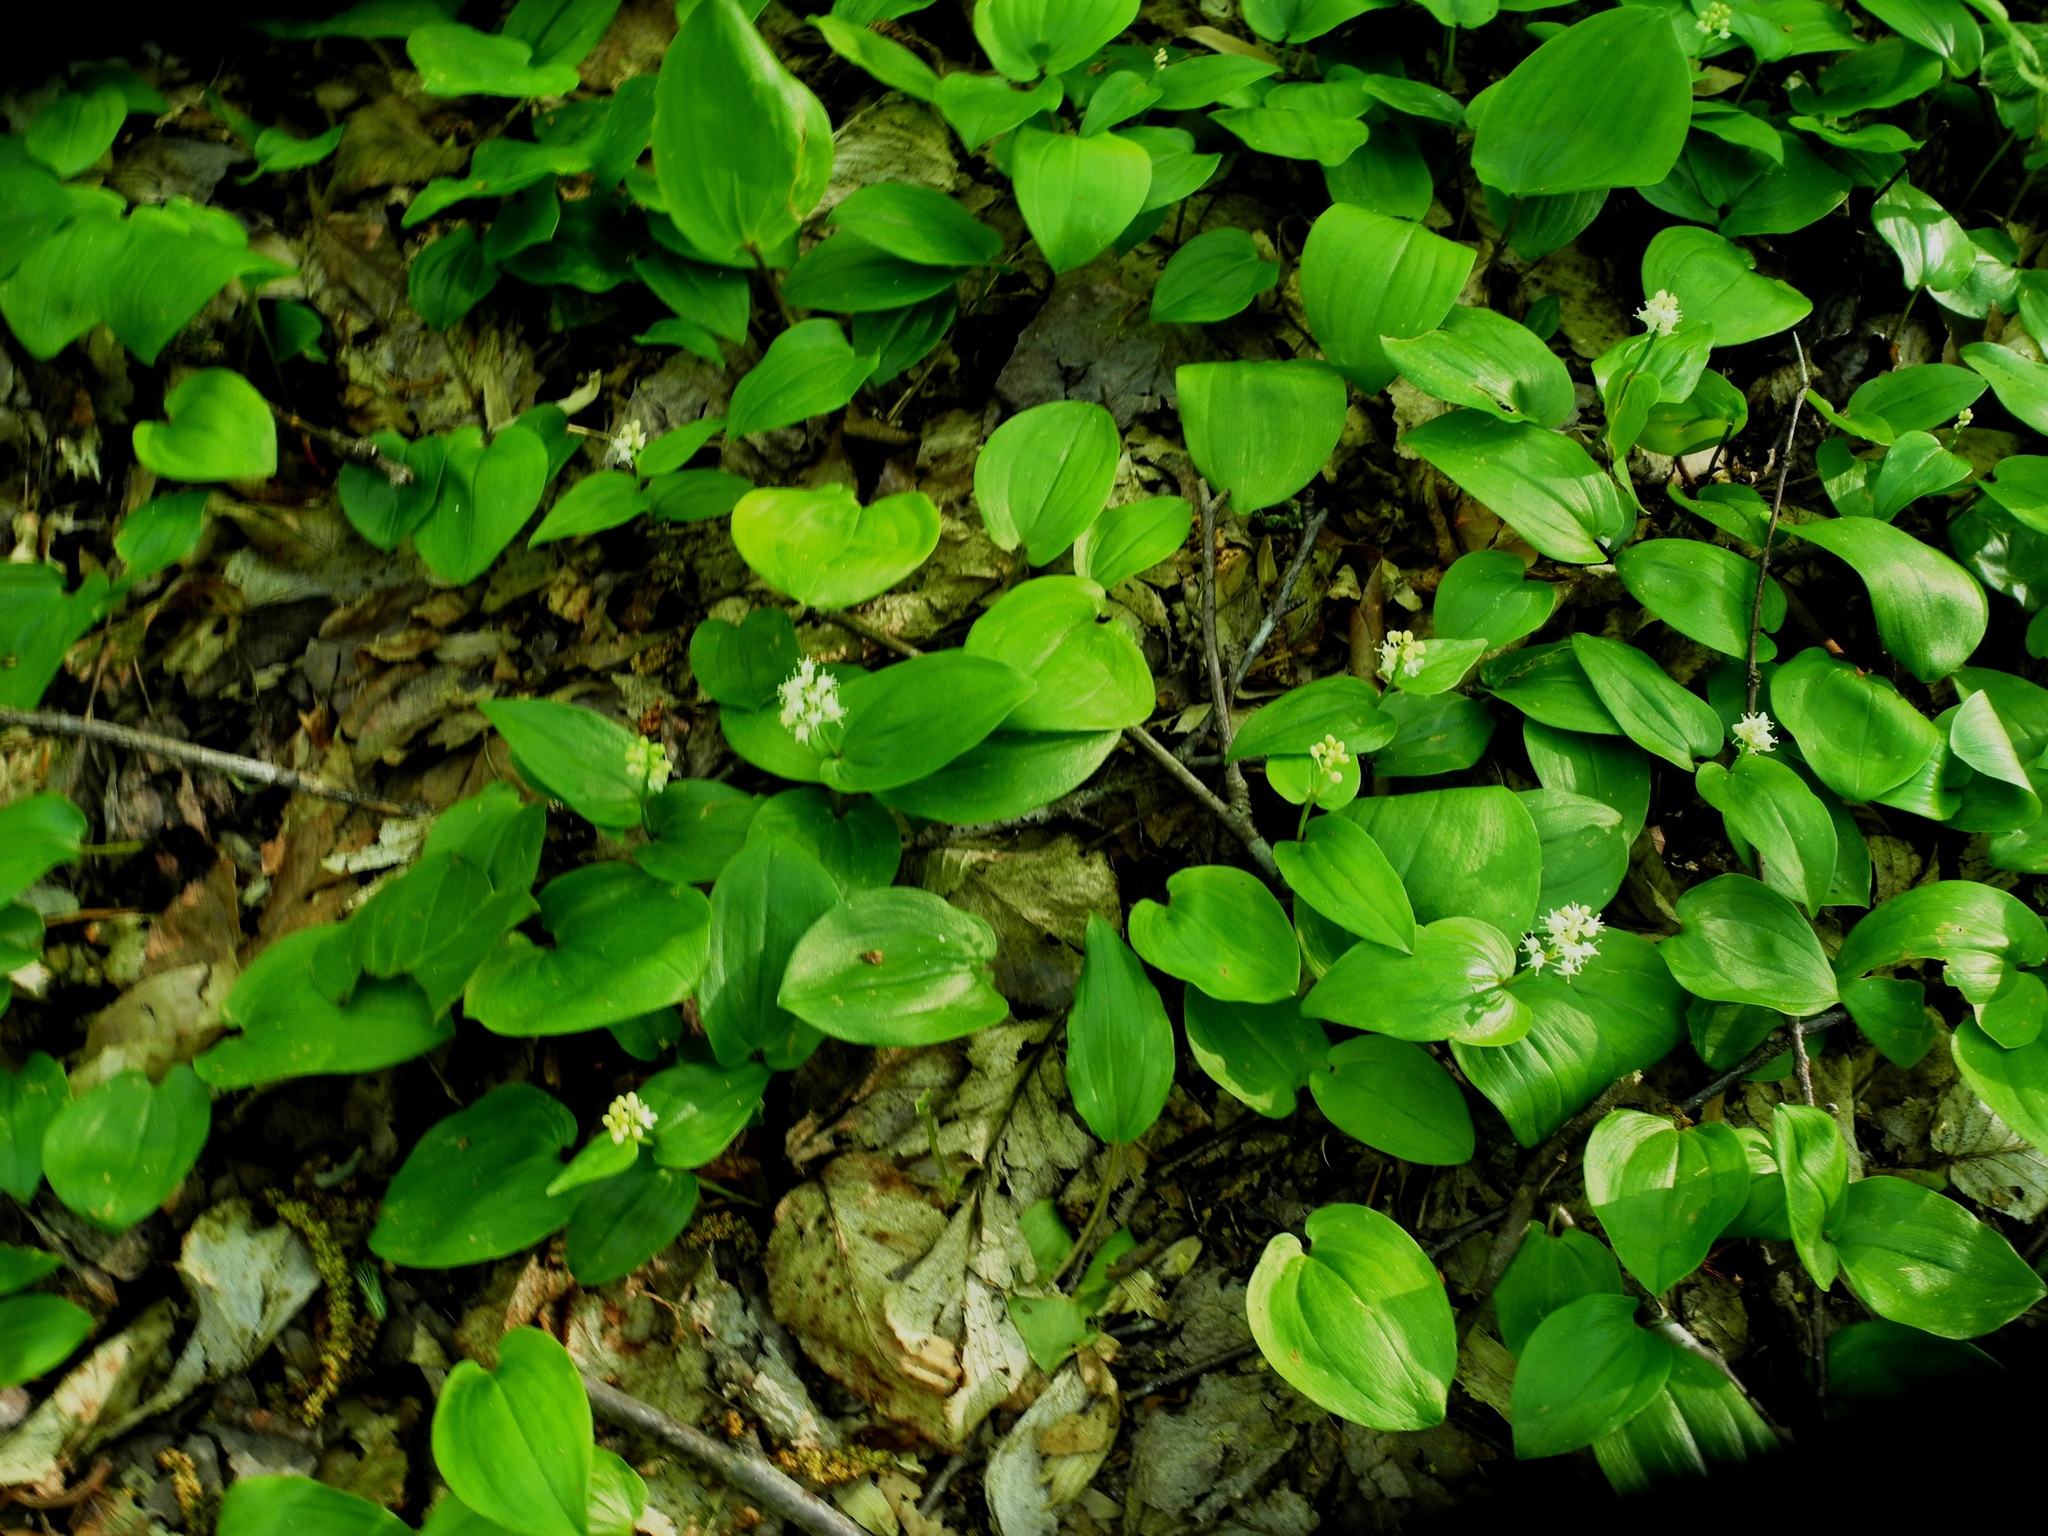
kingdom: Plantae
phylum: Tracheophyta
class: Liliopsida
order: Asparagales
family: Asparagaceae
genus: Maianthemum
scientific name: Maianthemum canadense
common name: False lily-of-the-valley
